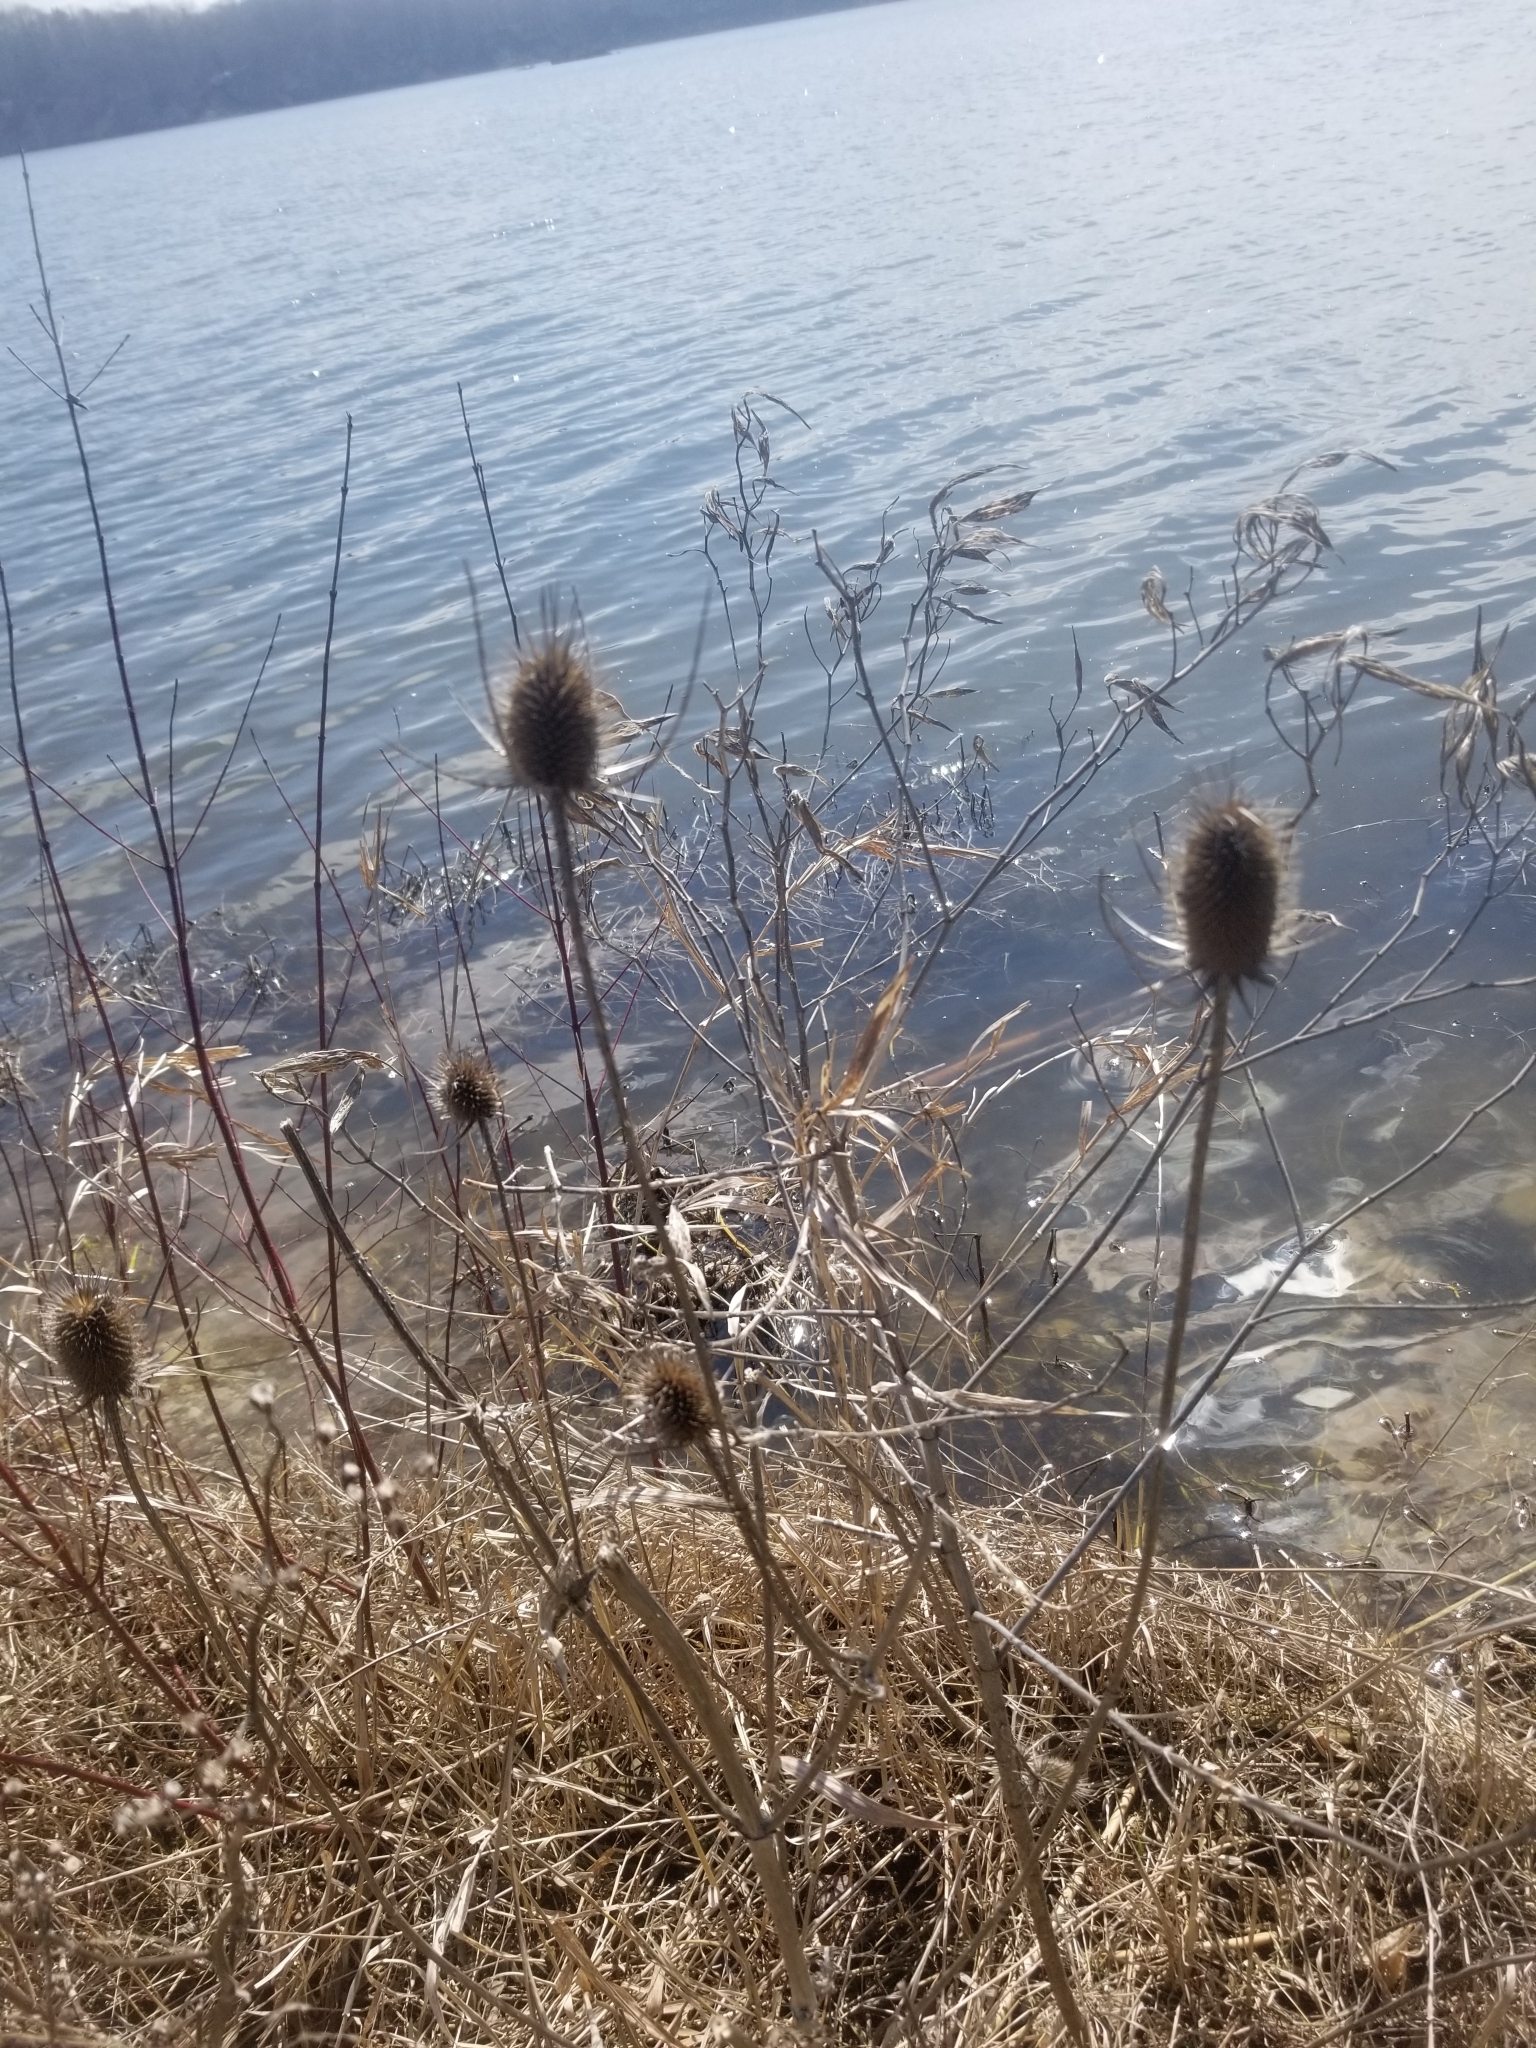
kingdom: Plantae
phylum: Tracheophyta
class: Magnoliopsida
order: Dipsacales
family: Caprifoliaceae
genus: Dipsacus
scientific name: Dipsacus fullonum
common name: Teasel
